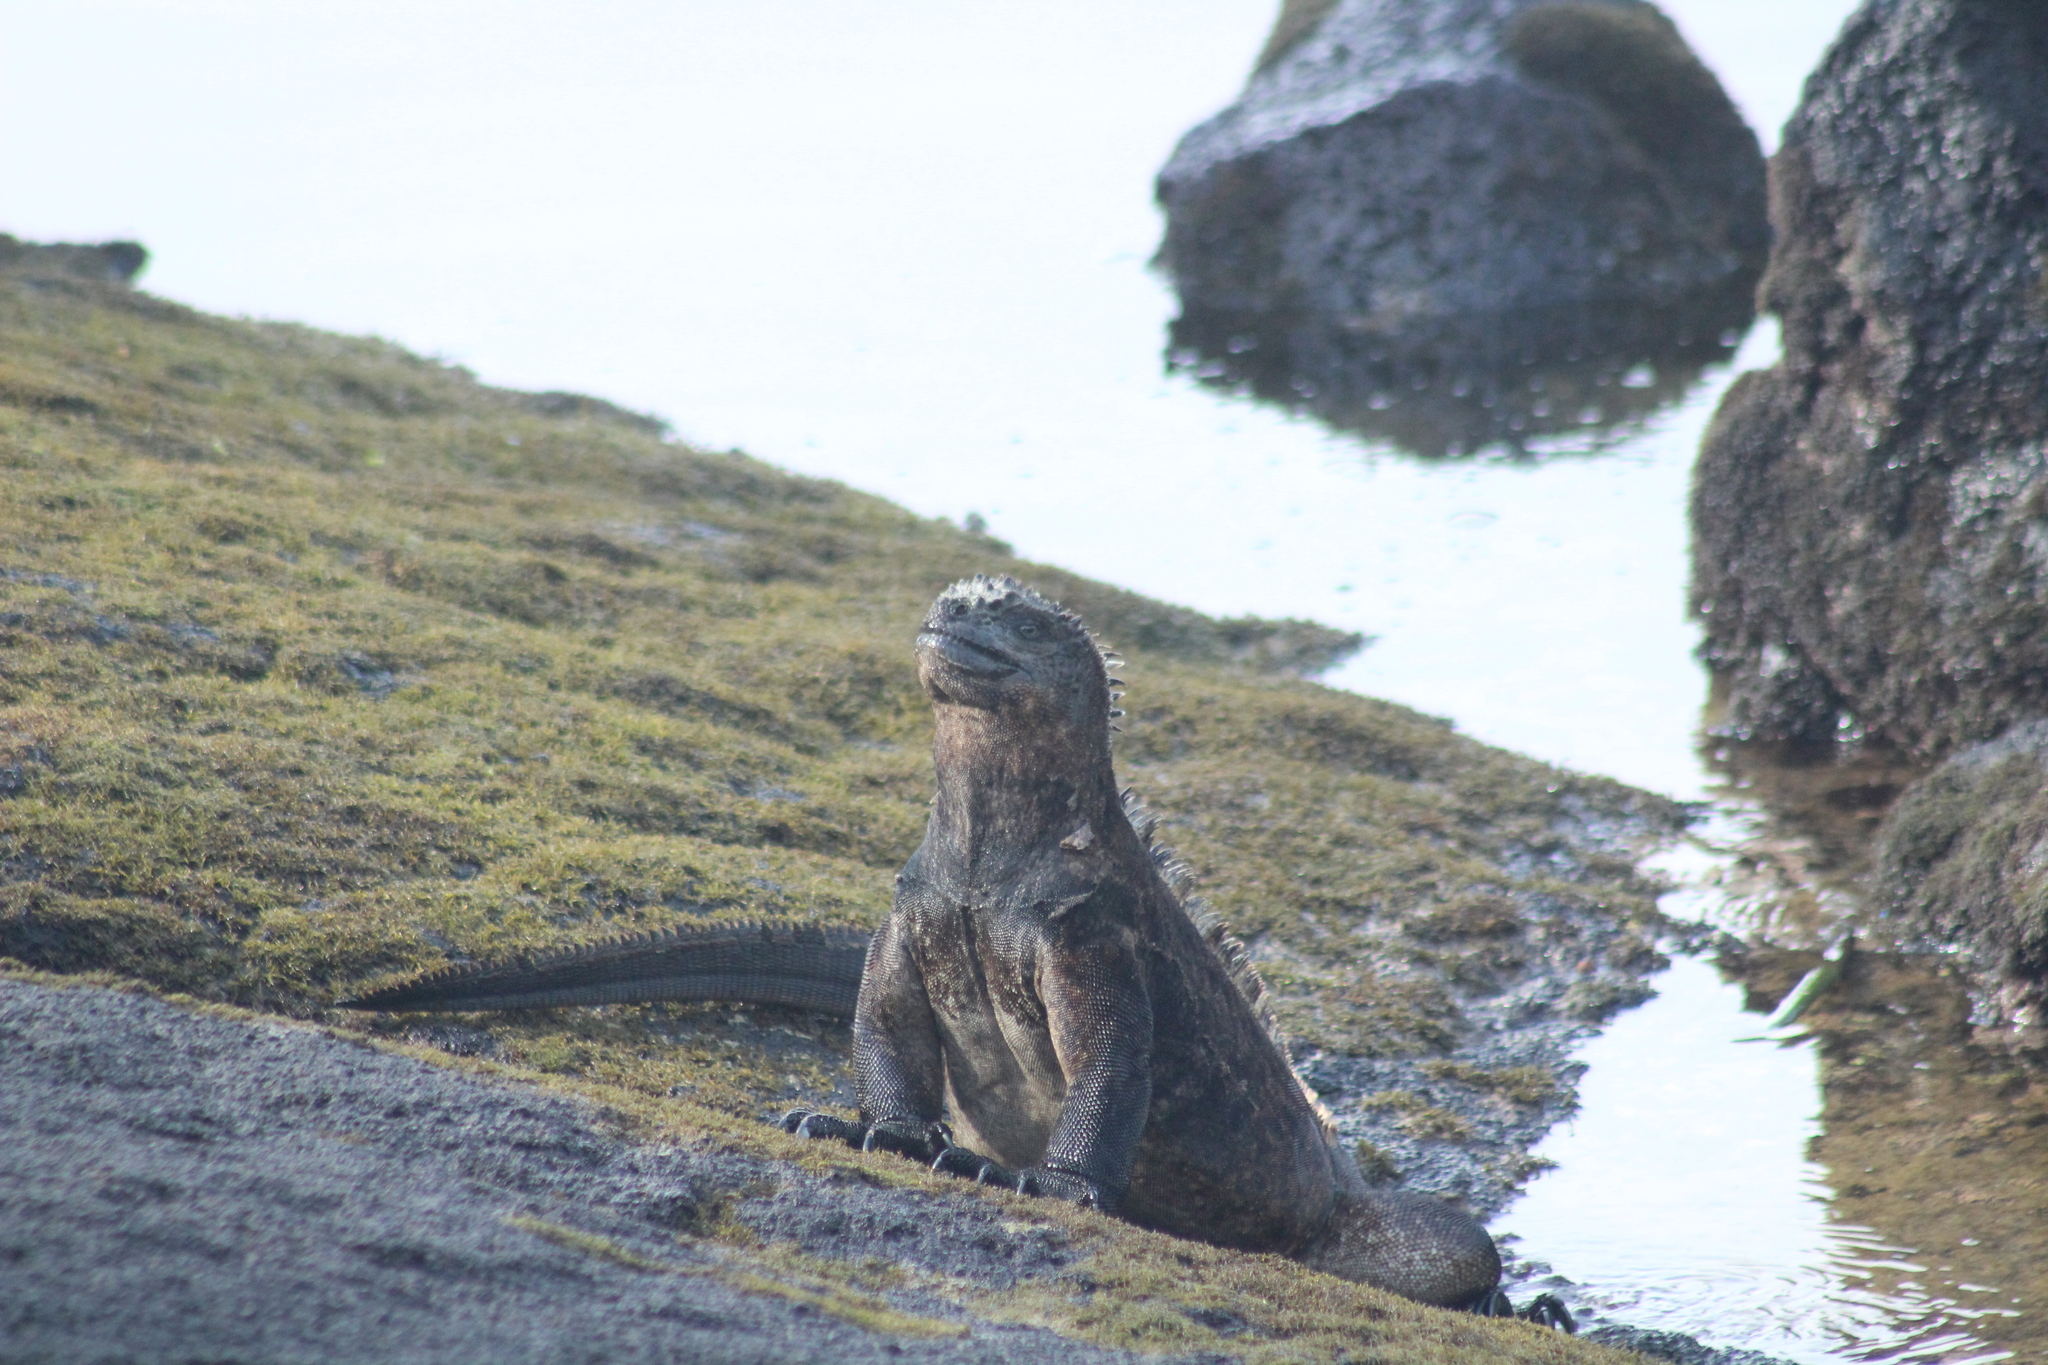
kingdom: Animalia
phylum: Chordata
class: Squamata
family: Iguanidae
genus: Amblyrhynchus
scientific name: Amblyrhynchus cristatus
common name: Marine iguana
